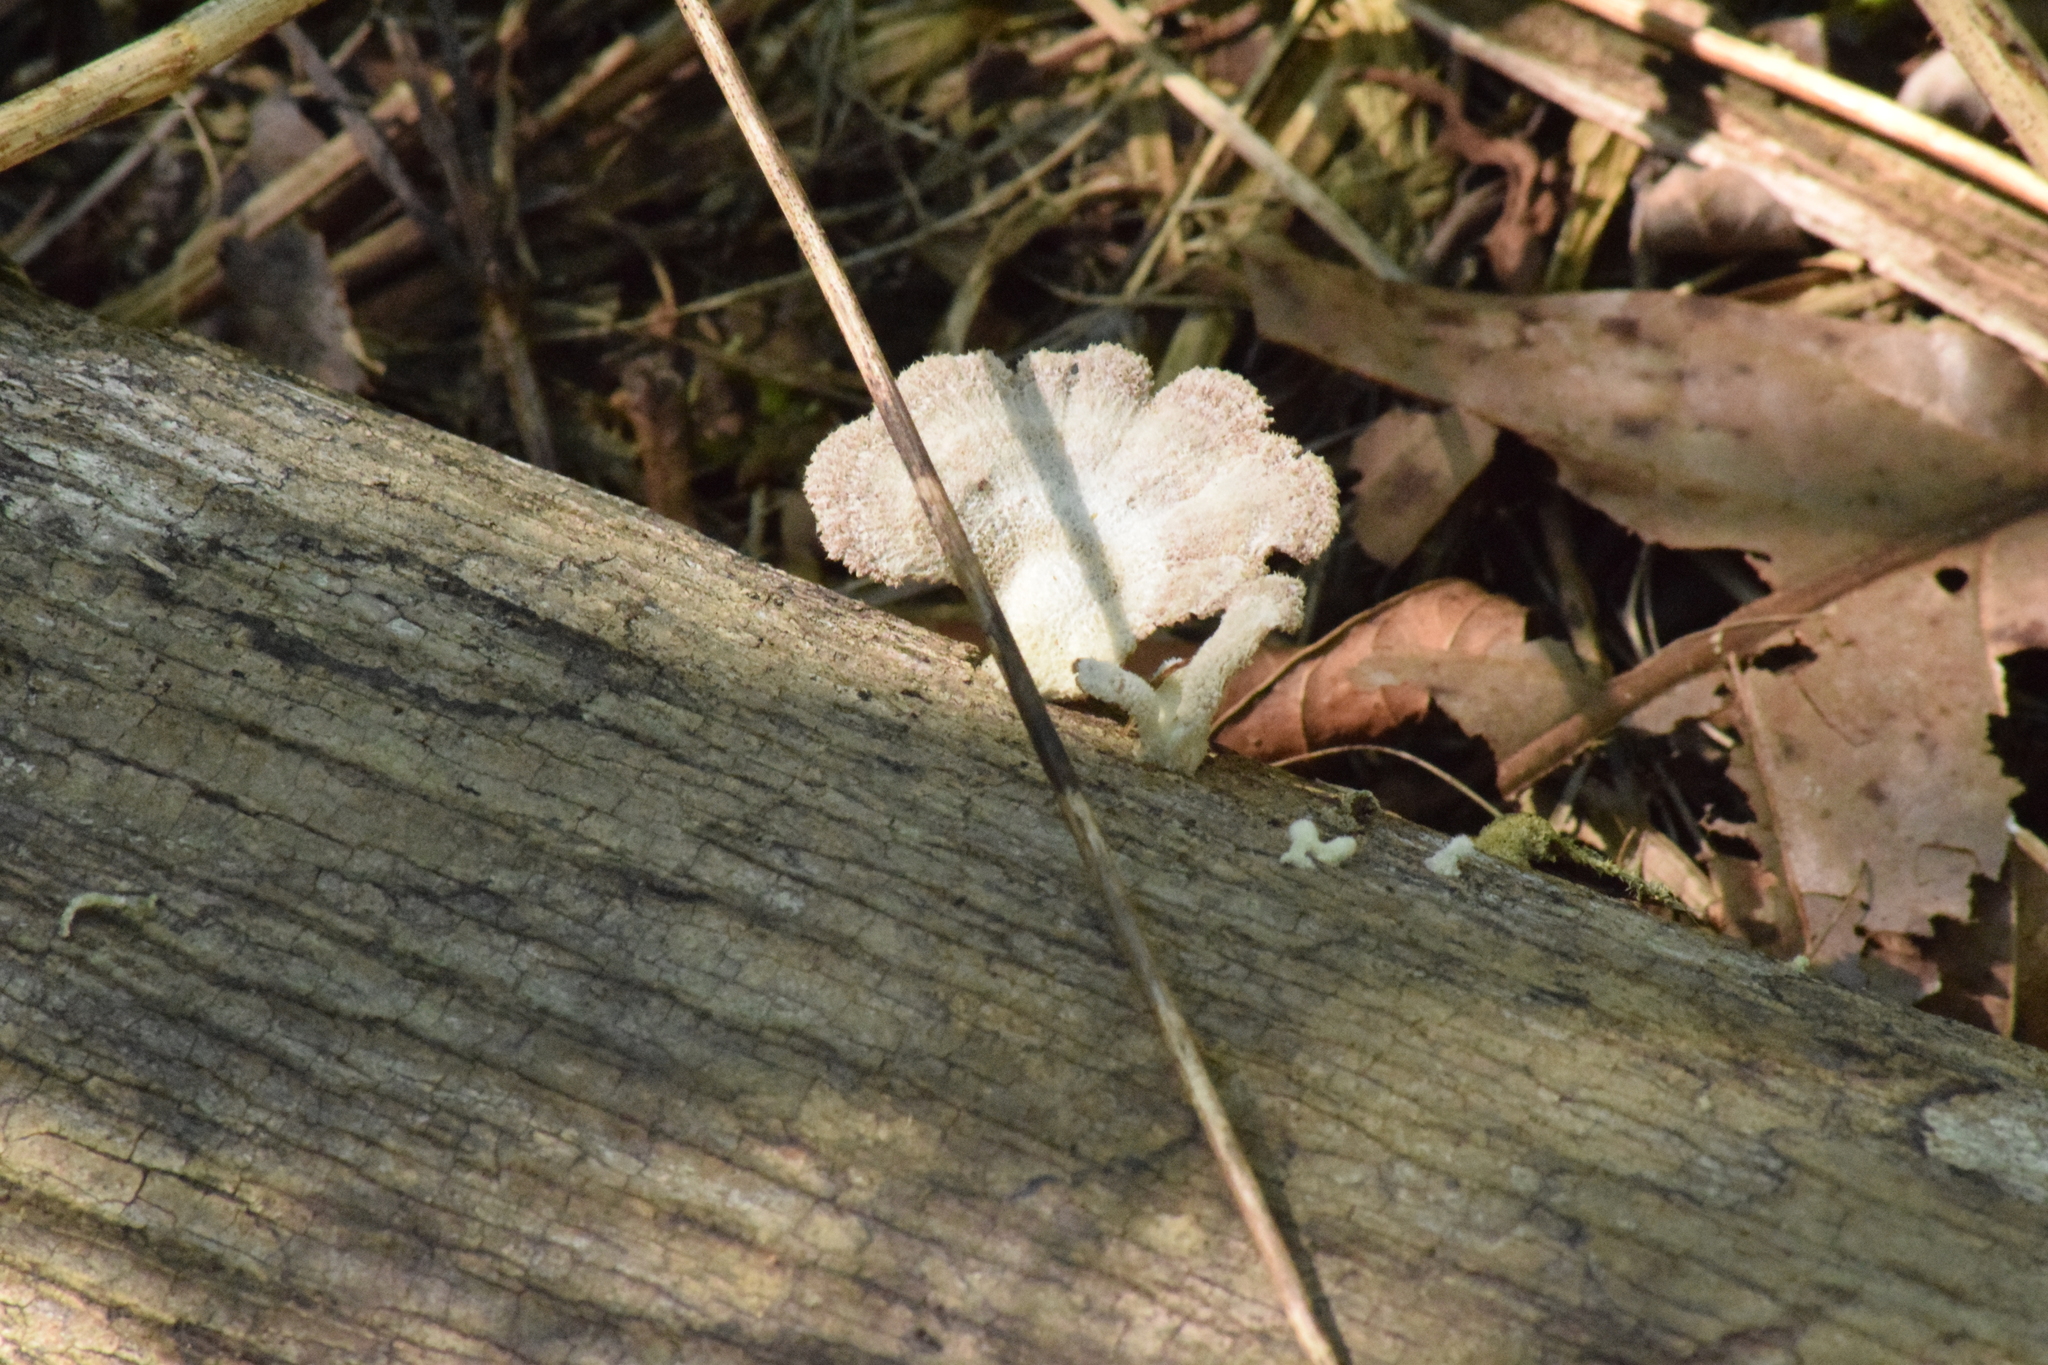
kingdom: Fungi
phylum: Basidiomycota
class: Agaricomycetes
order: Agaricales
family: Schizophyllaceae
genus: Schizophyllum
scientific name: Schizophyllum commune
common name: Common porecrust
